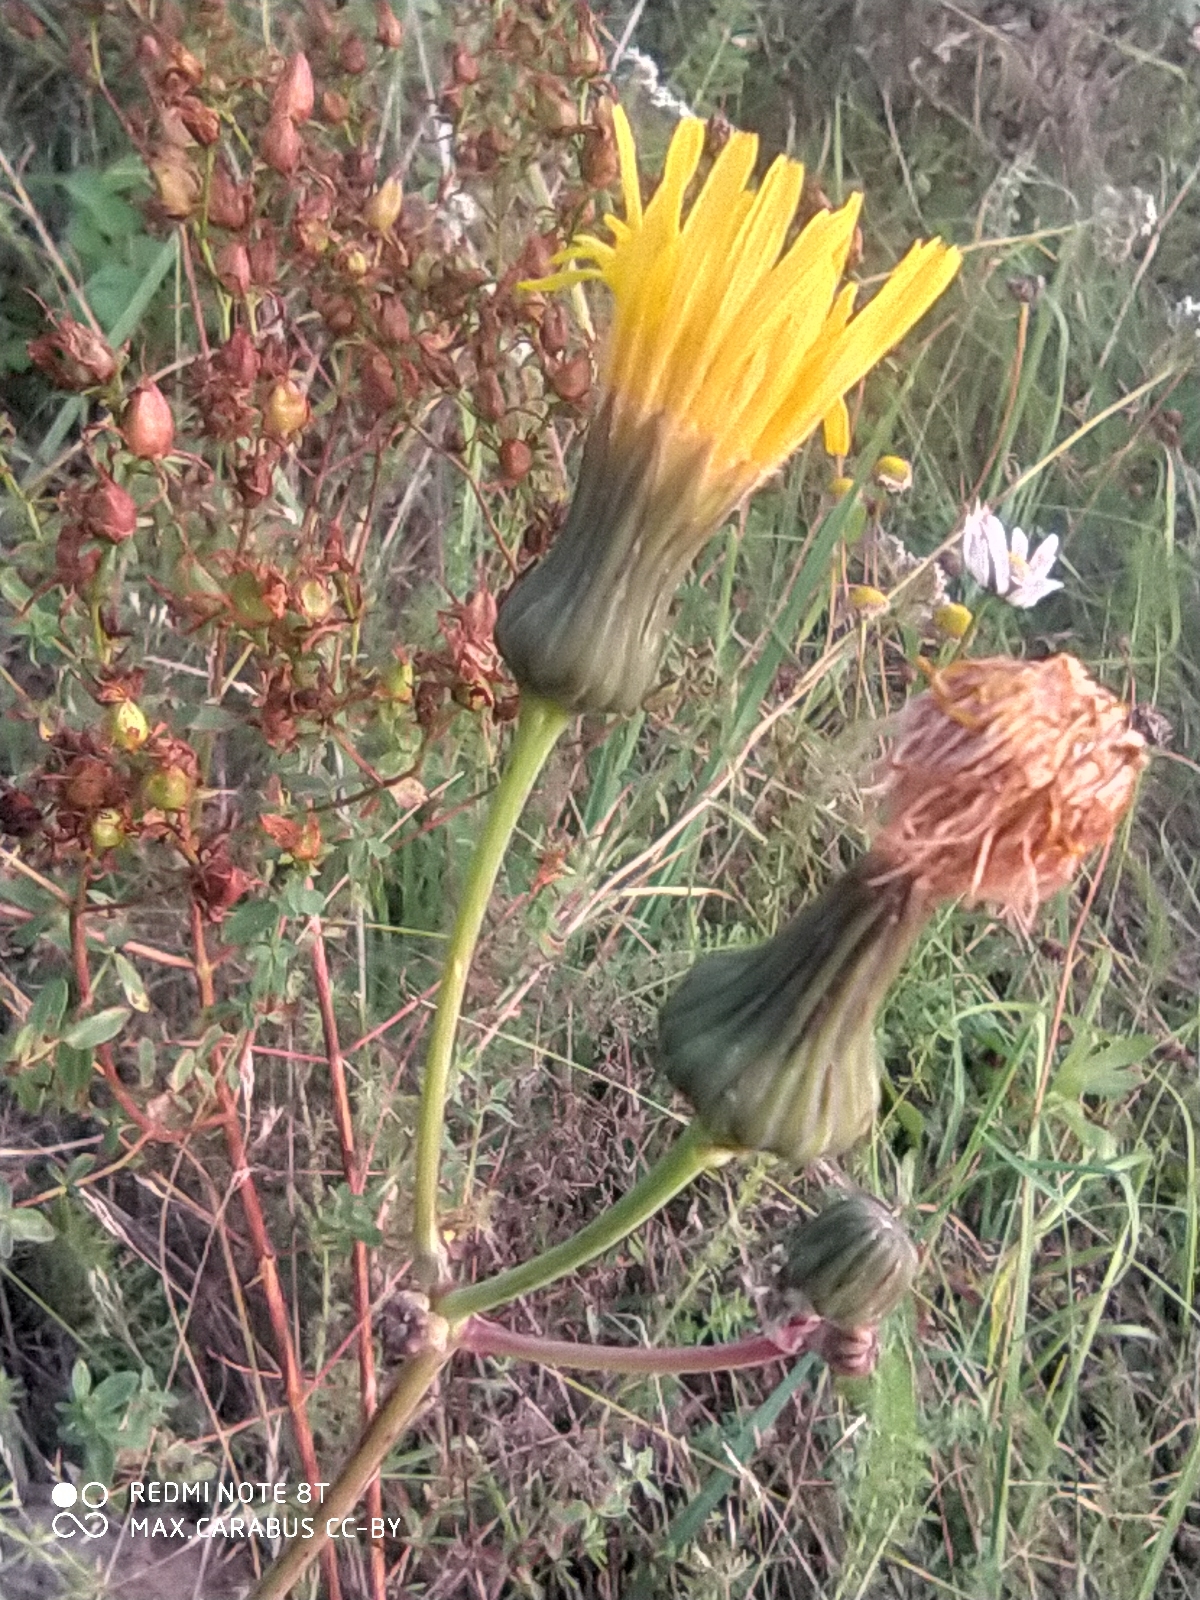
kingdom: Plantae
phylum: Tracheophyta
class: Magnoliopsida
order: Asterales
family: Asteraceae
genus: Sonchus
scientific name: Sonchus arvensis
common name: Perennial sow-thistle
